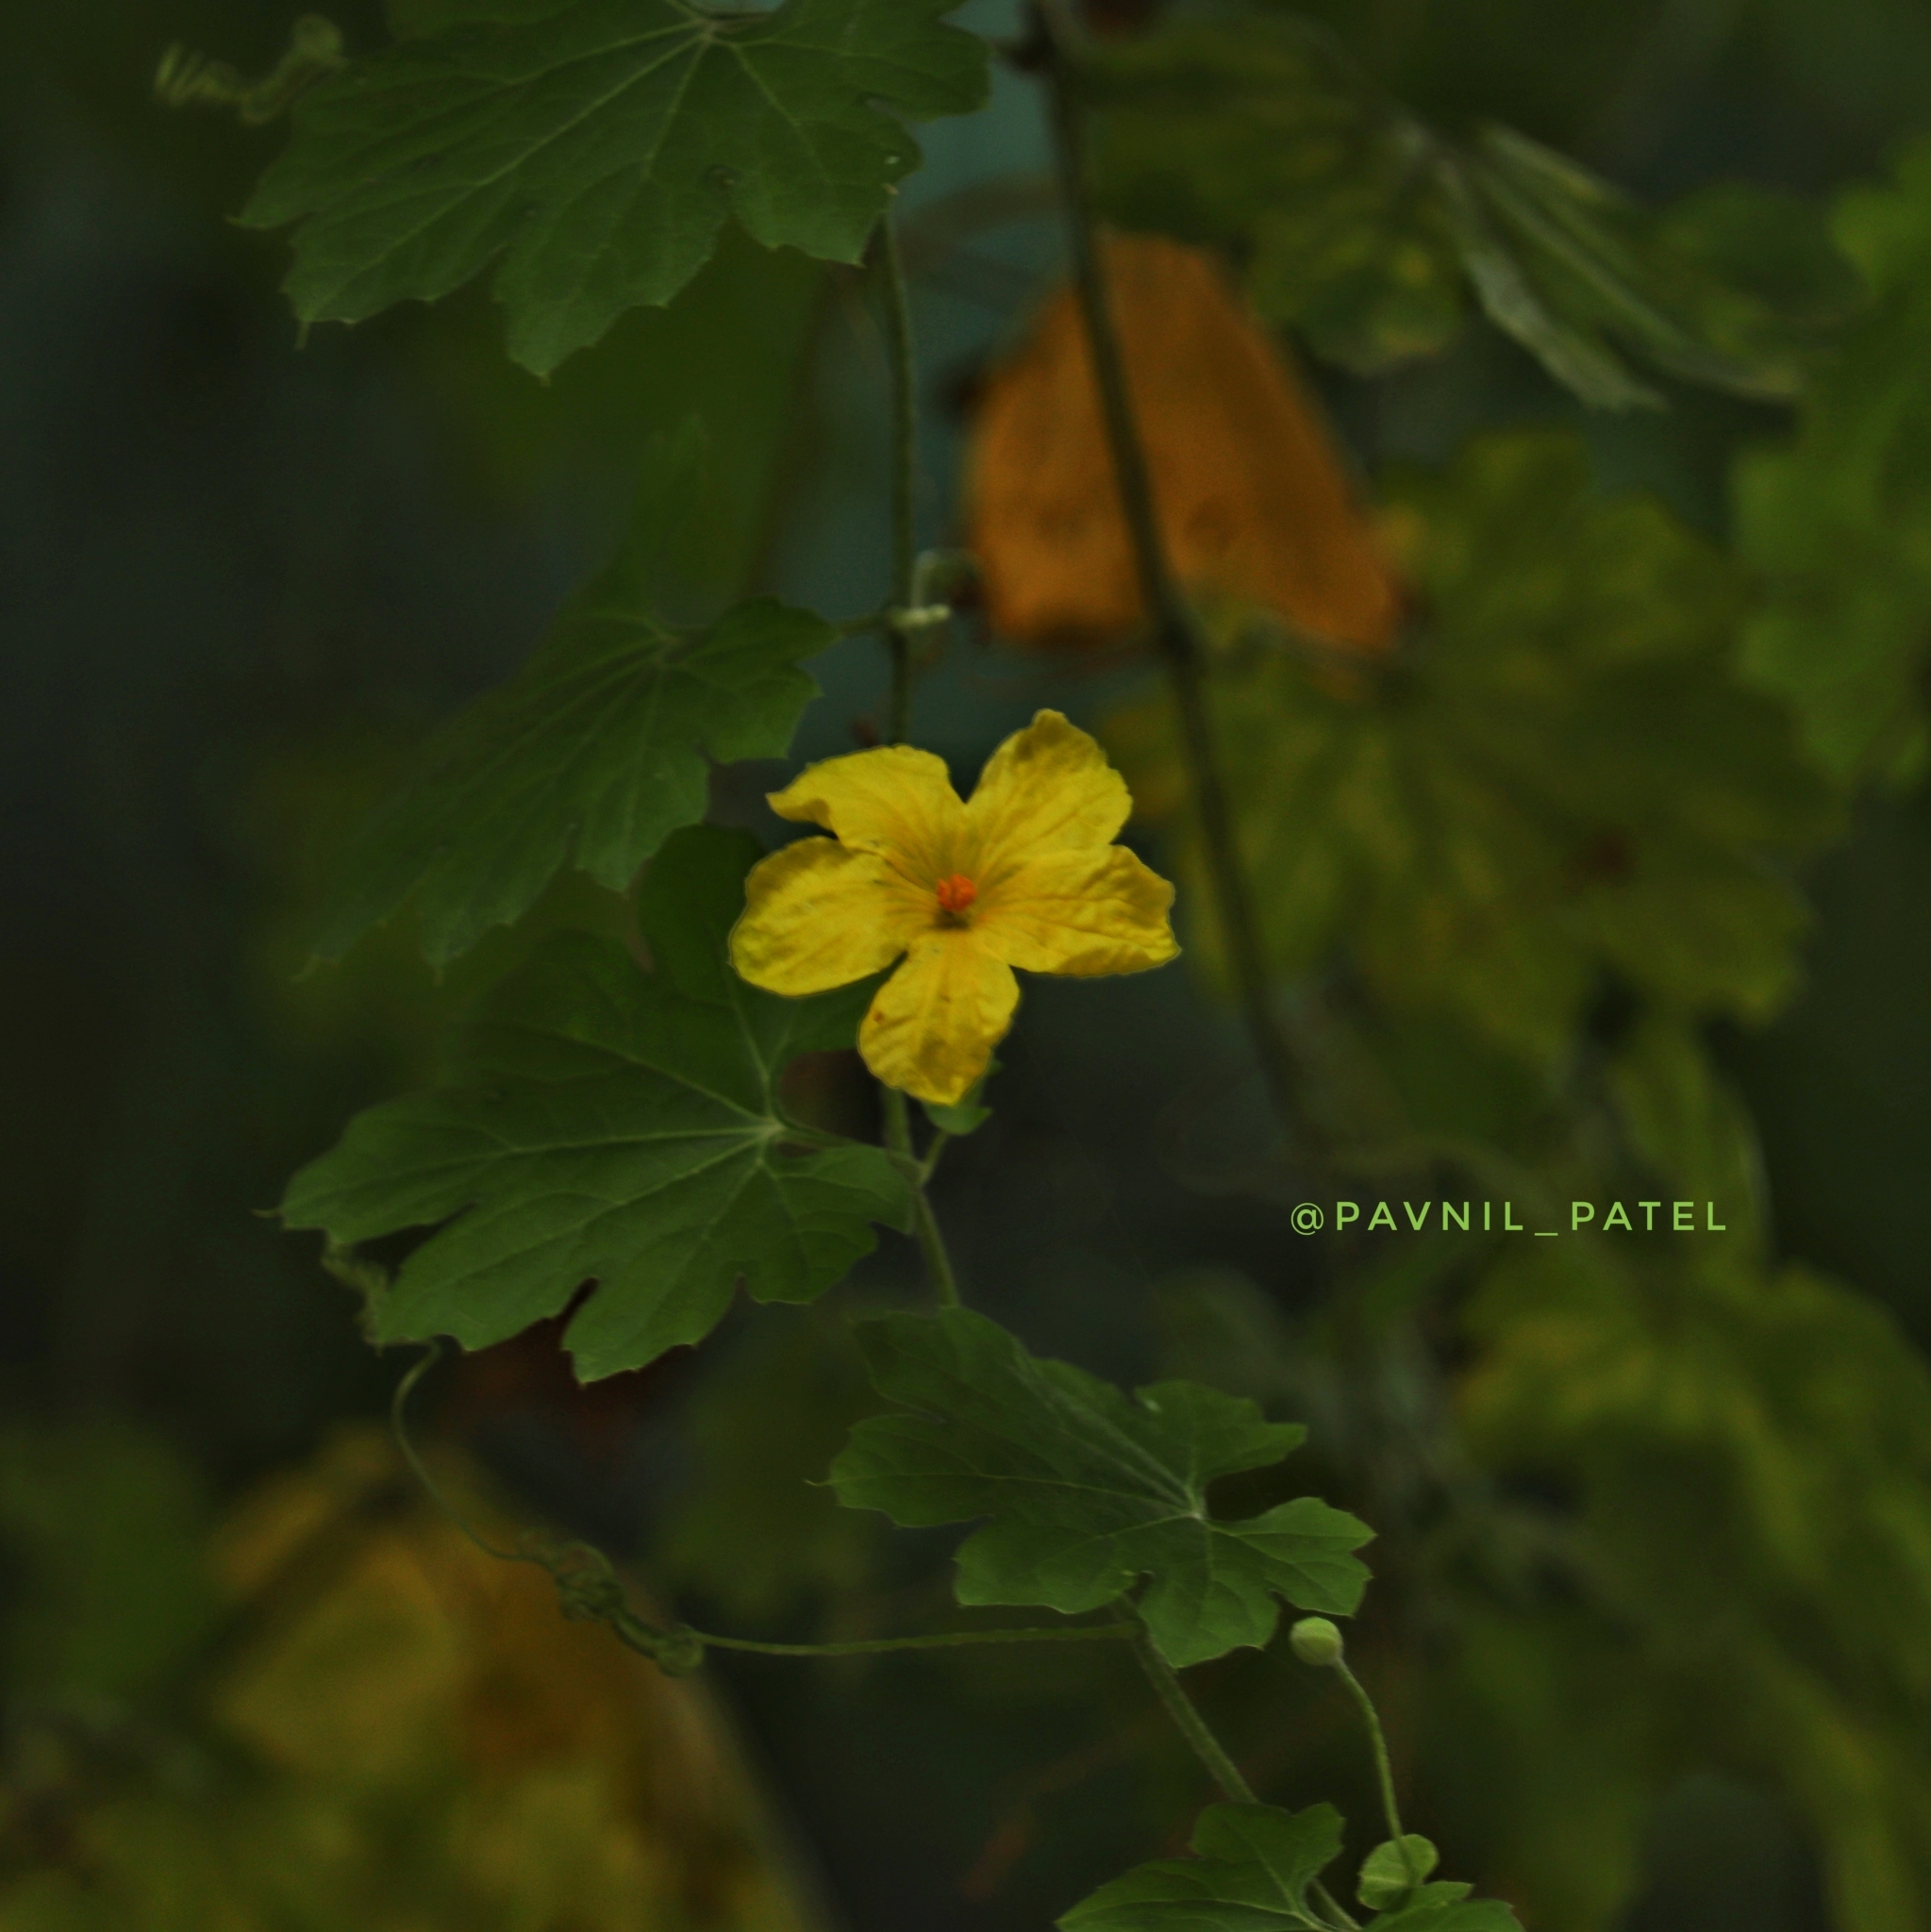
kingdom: Plantae
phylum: Tracheophyta
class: Magnoliopsida
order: Cucurbitales
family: Cucurbitaceae
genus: Momordica
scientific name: Momordica charantia
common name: Balsampear
